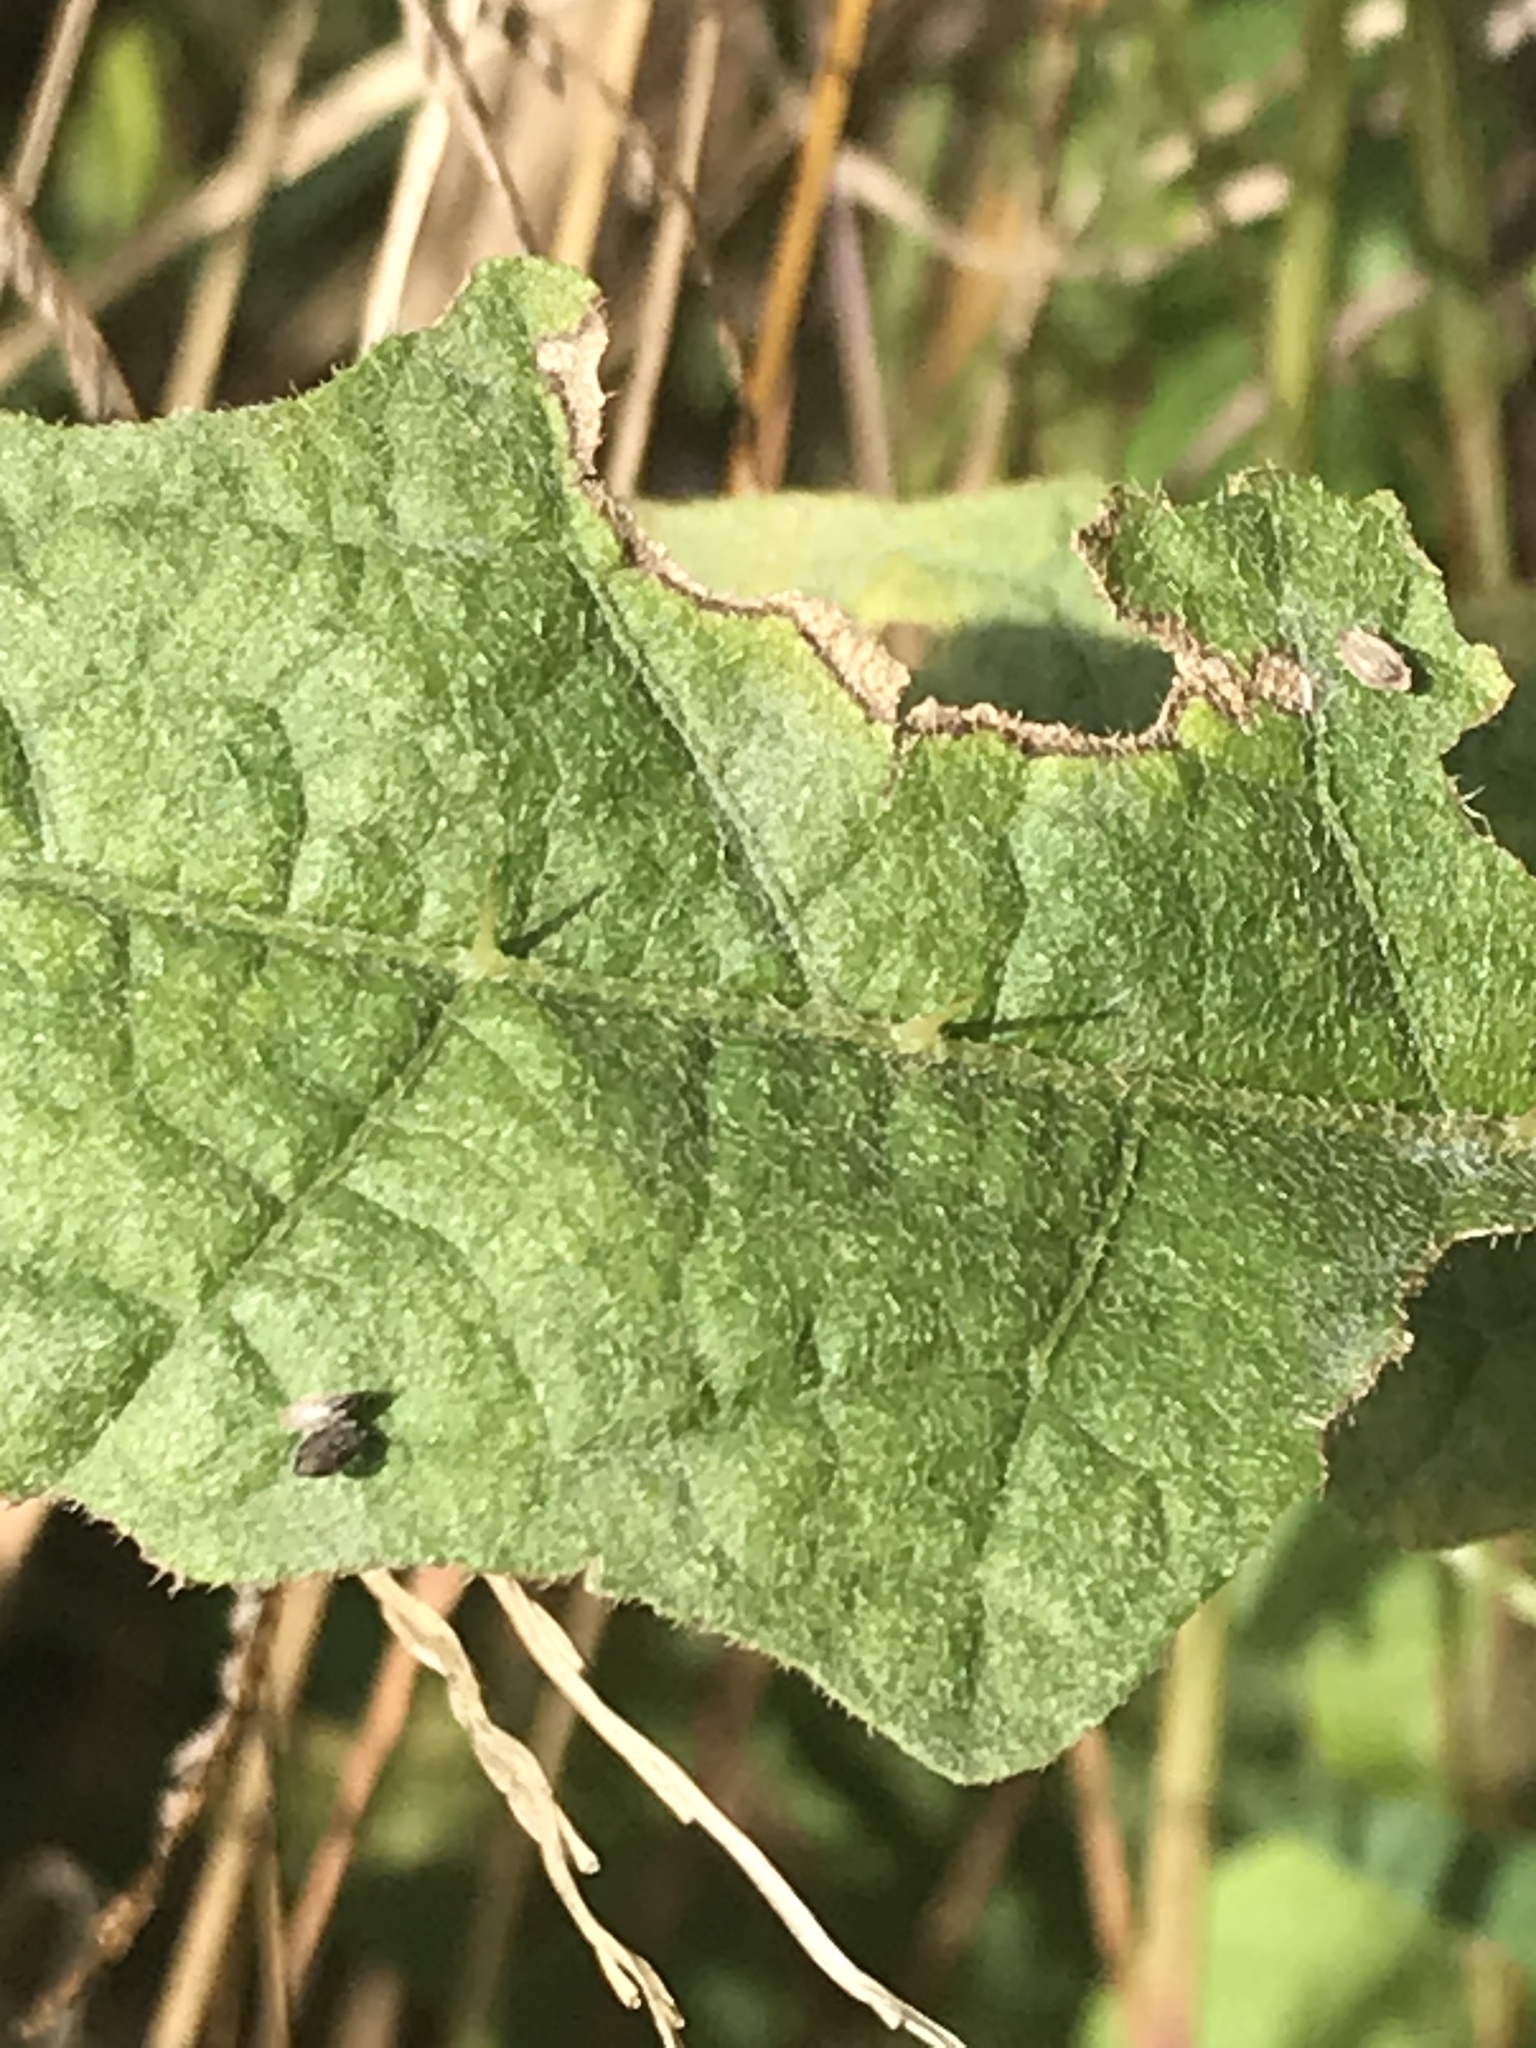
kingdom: Plantae
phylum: Tracheophyta
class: Magnoliopsida
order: Solanales
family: Solanaceae
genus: Solanum
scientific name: Solanum carolinense
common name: Horse-nettle
